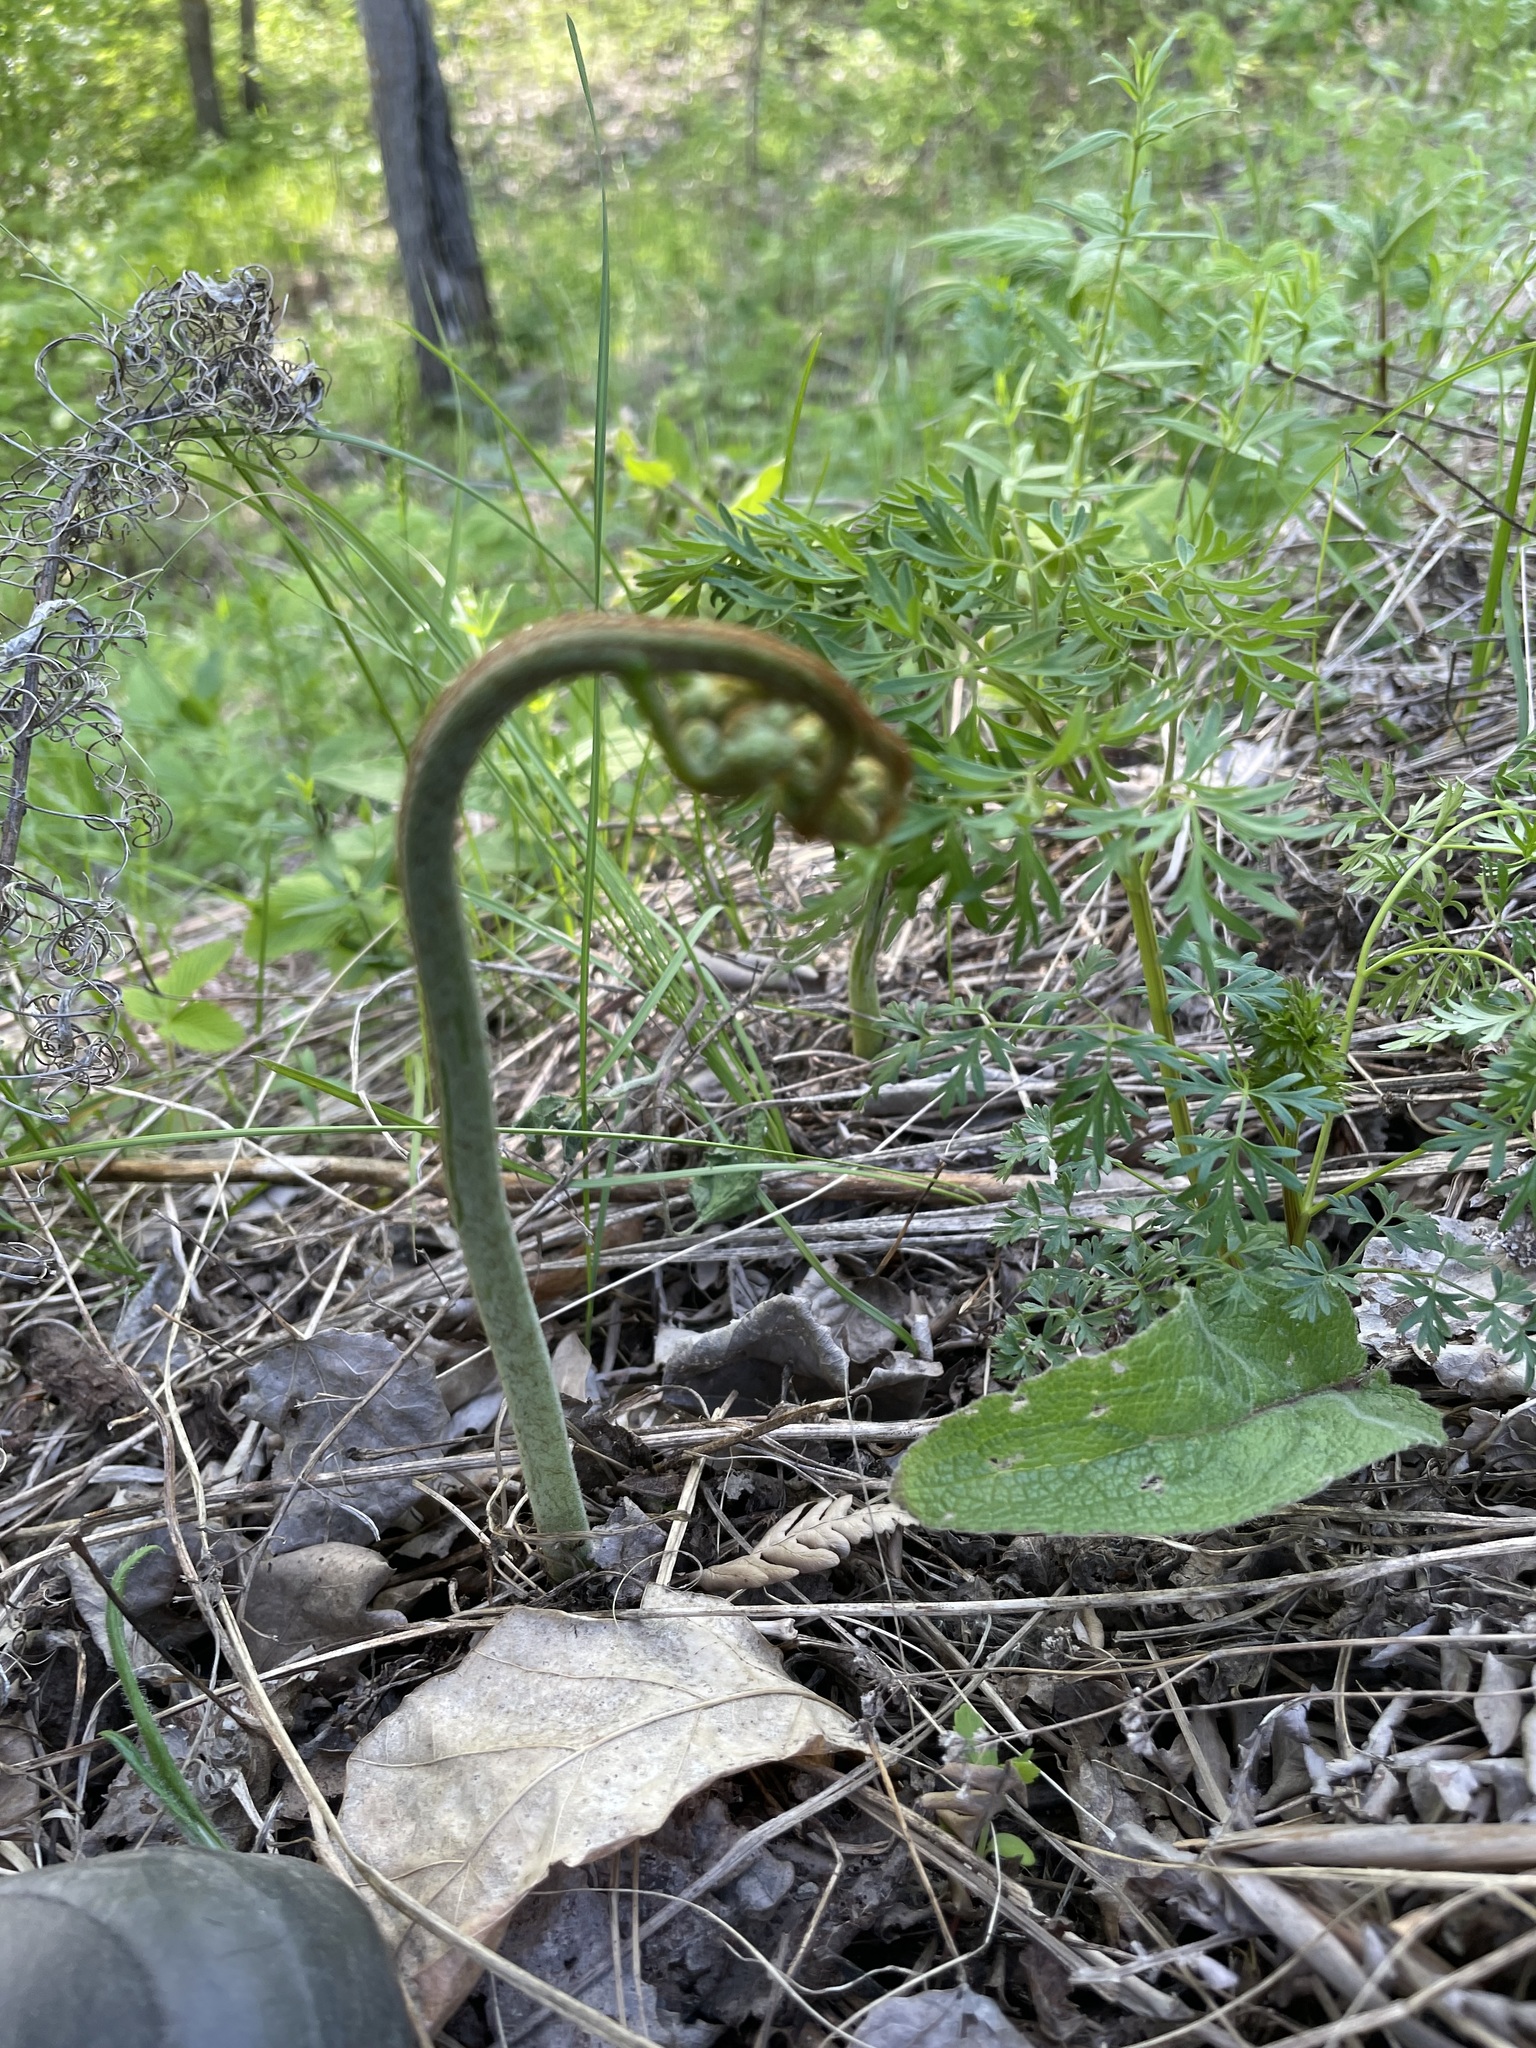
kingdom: Plantae
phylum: Tracheophyta
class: Polypodiopsida
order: Polypodiales
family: Dennstaedtiaceae
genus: Pteridium
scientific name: Pteridium aquilinum
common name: Bracken
